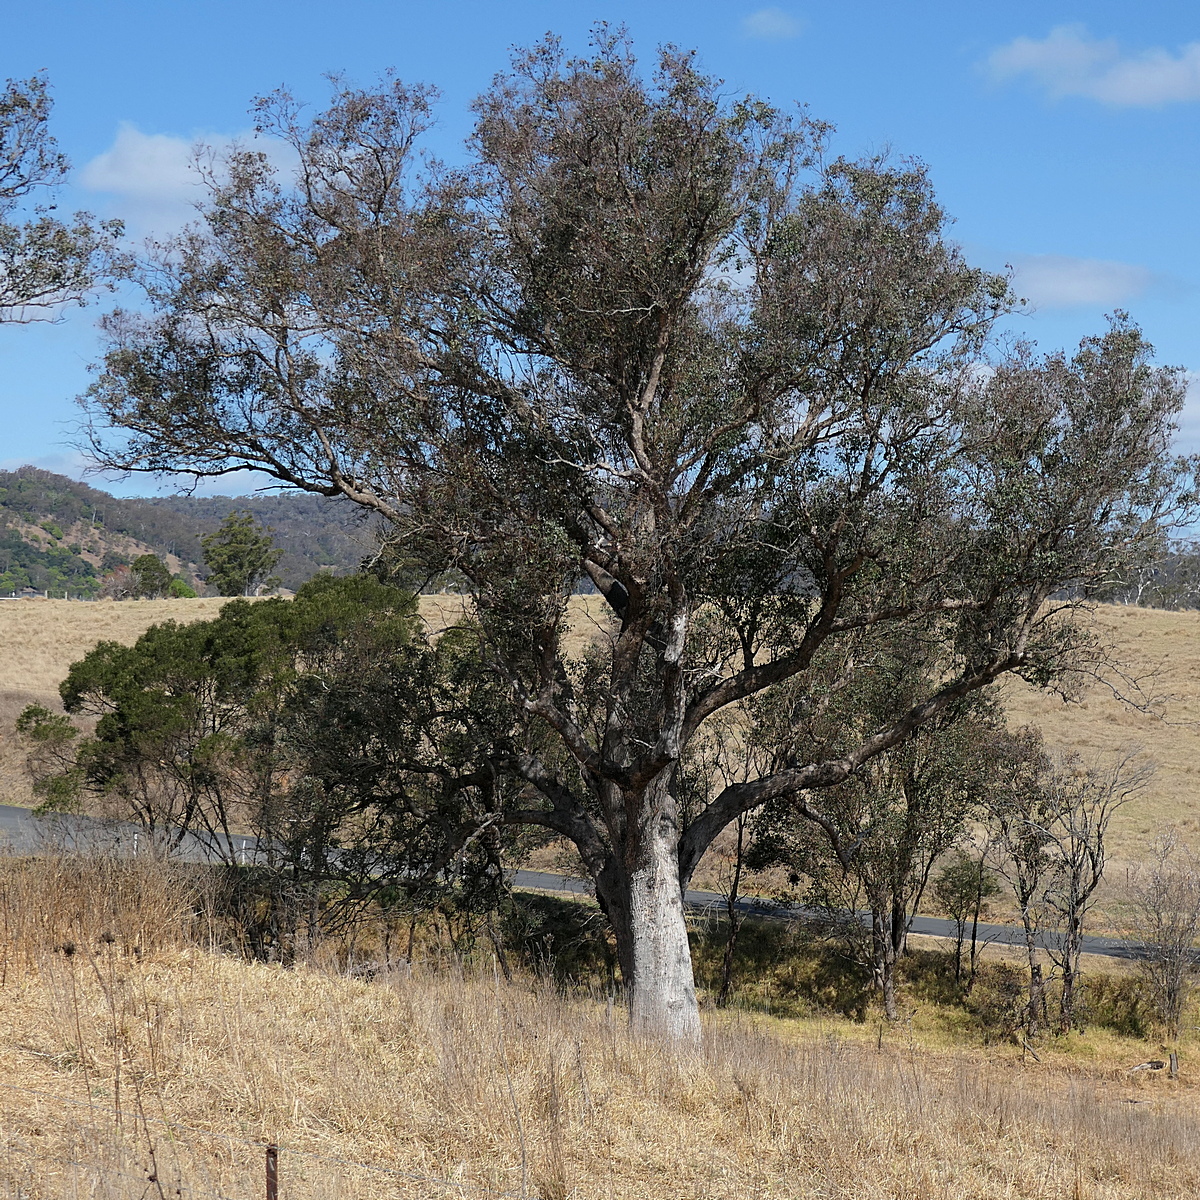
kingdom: Plantae
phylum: Tracheophyta
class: Magnoliopsida
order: Myrtales
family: Myrtaceae
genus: Eucalyptus
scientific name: Eucalyptus baueriana
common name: Round-leaf-box
